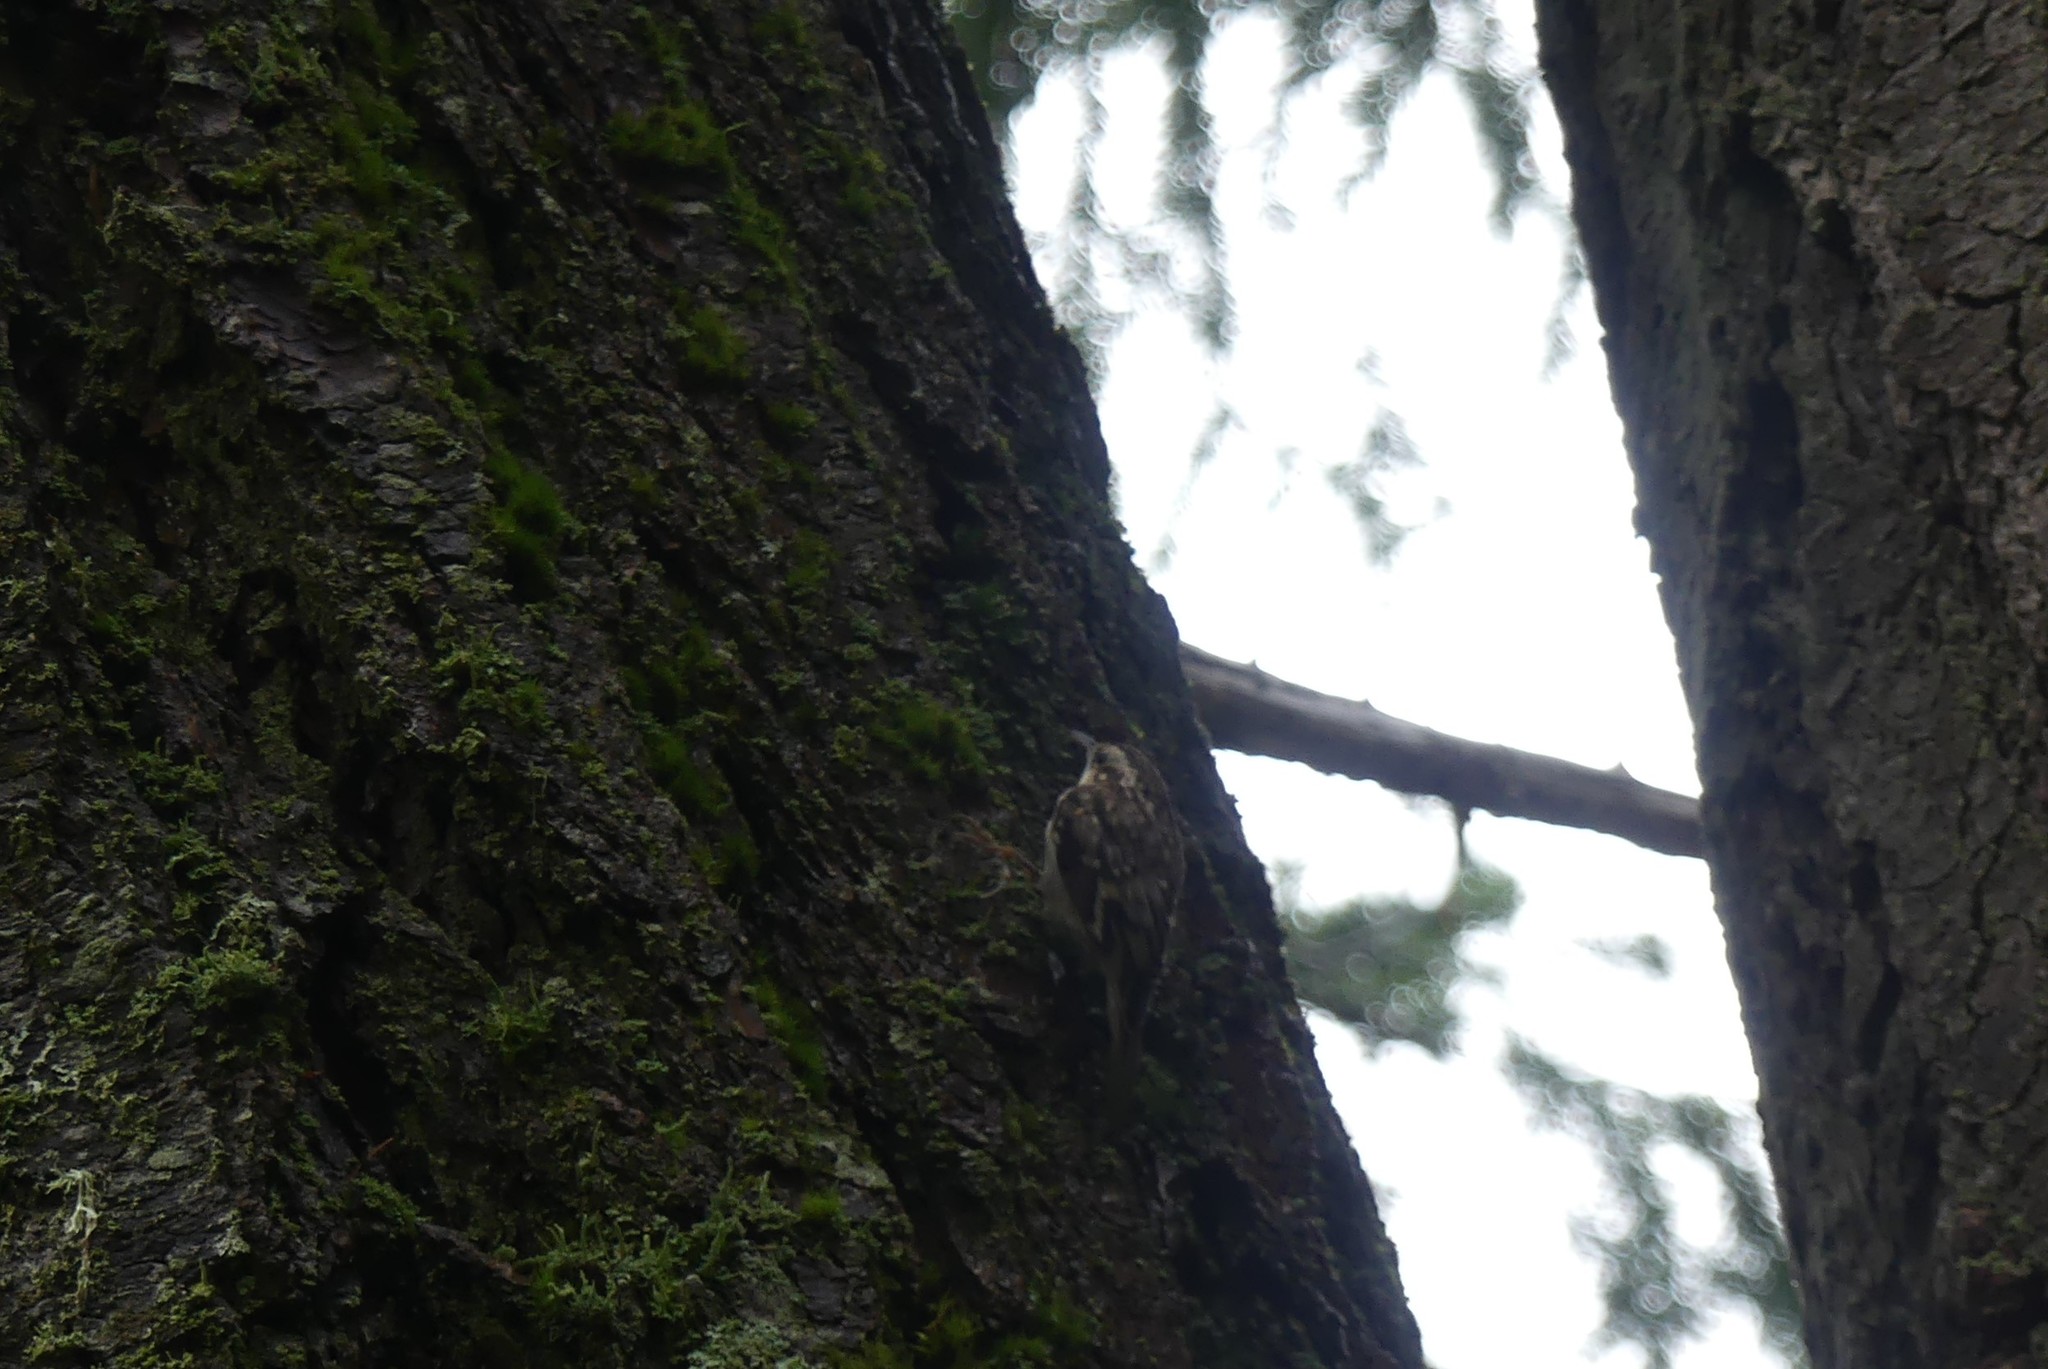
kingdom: Animalia
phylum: Chordata
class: Aves
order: Passeriformes
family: Certhiidae
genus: Certhia
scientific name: Certhia americana
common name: Brown creeper
